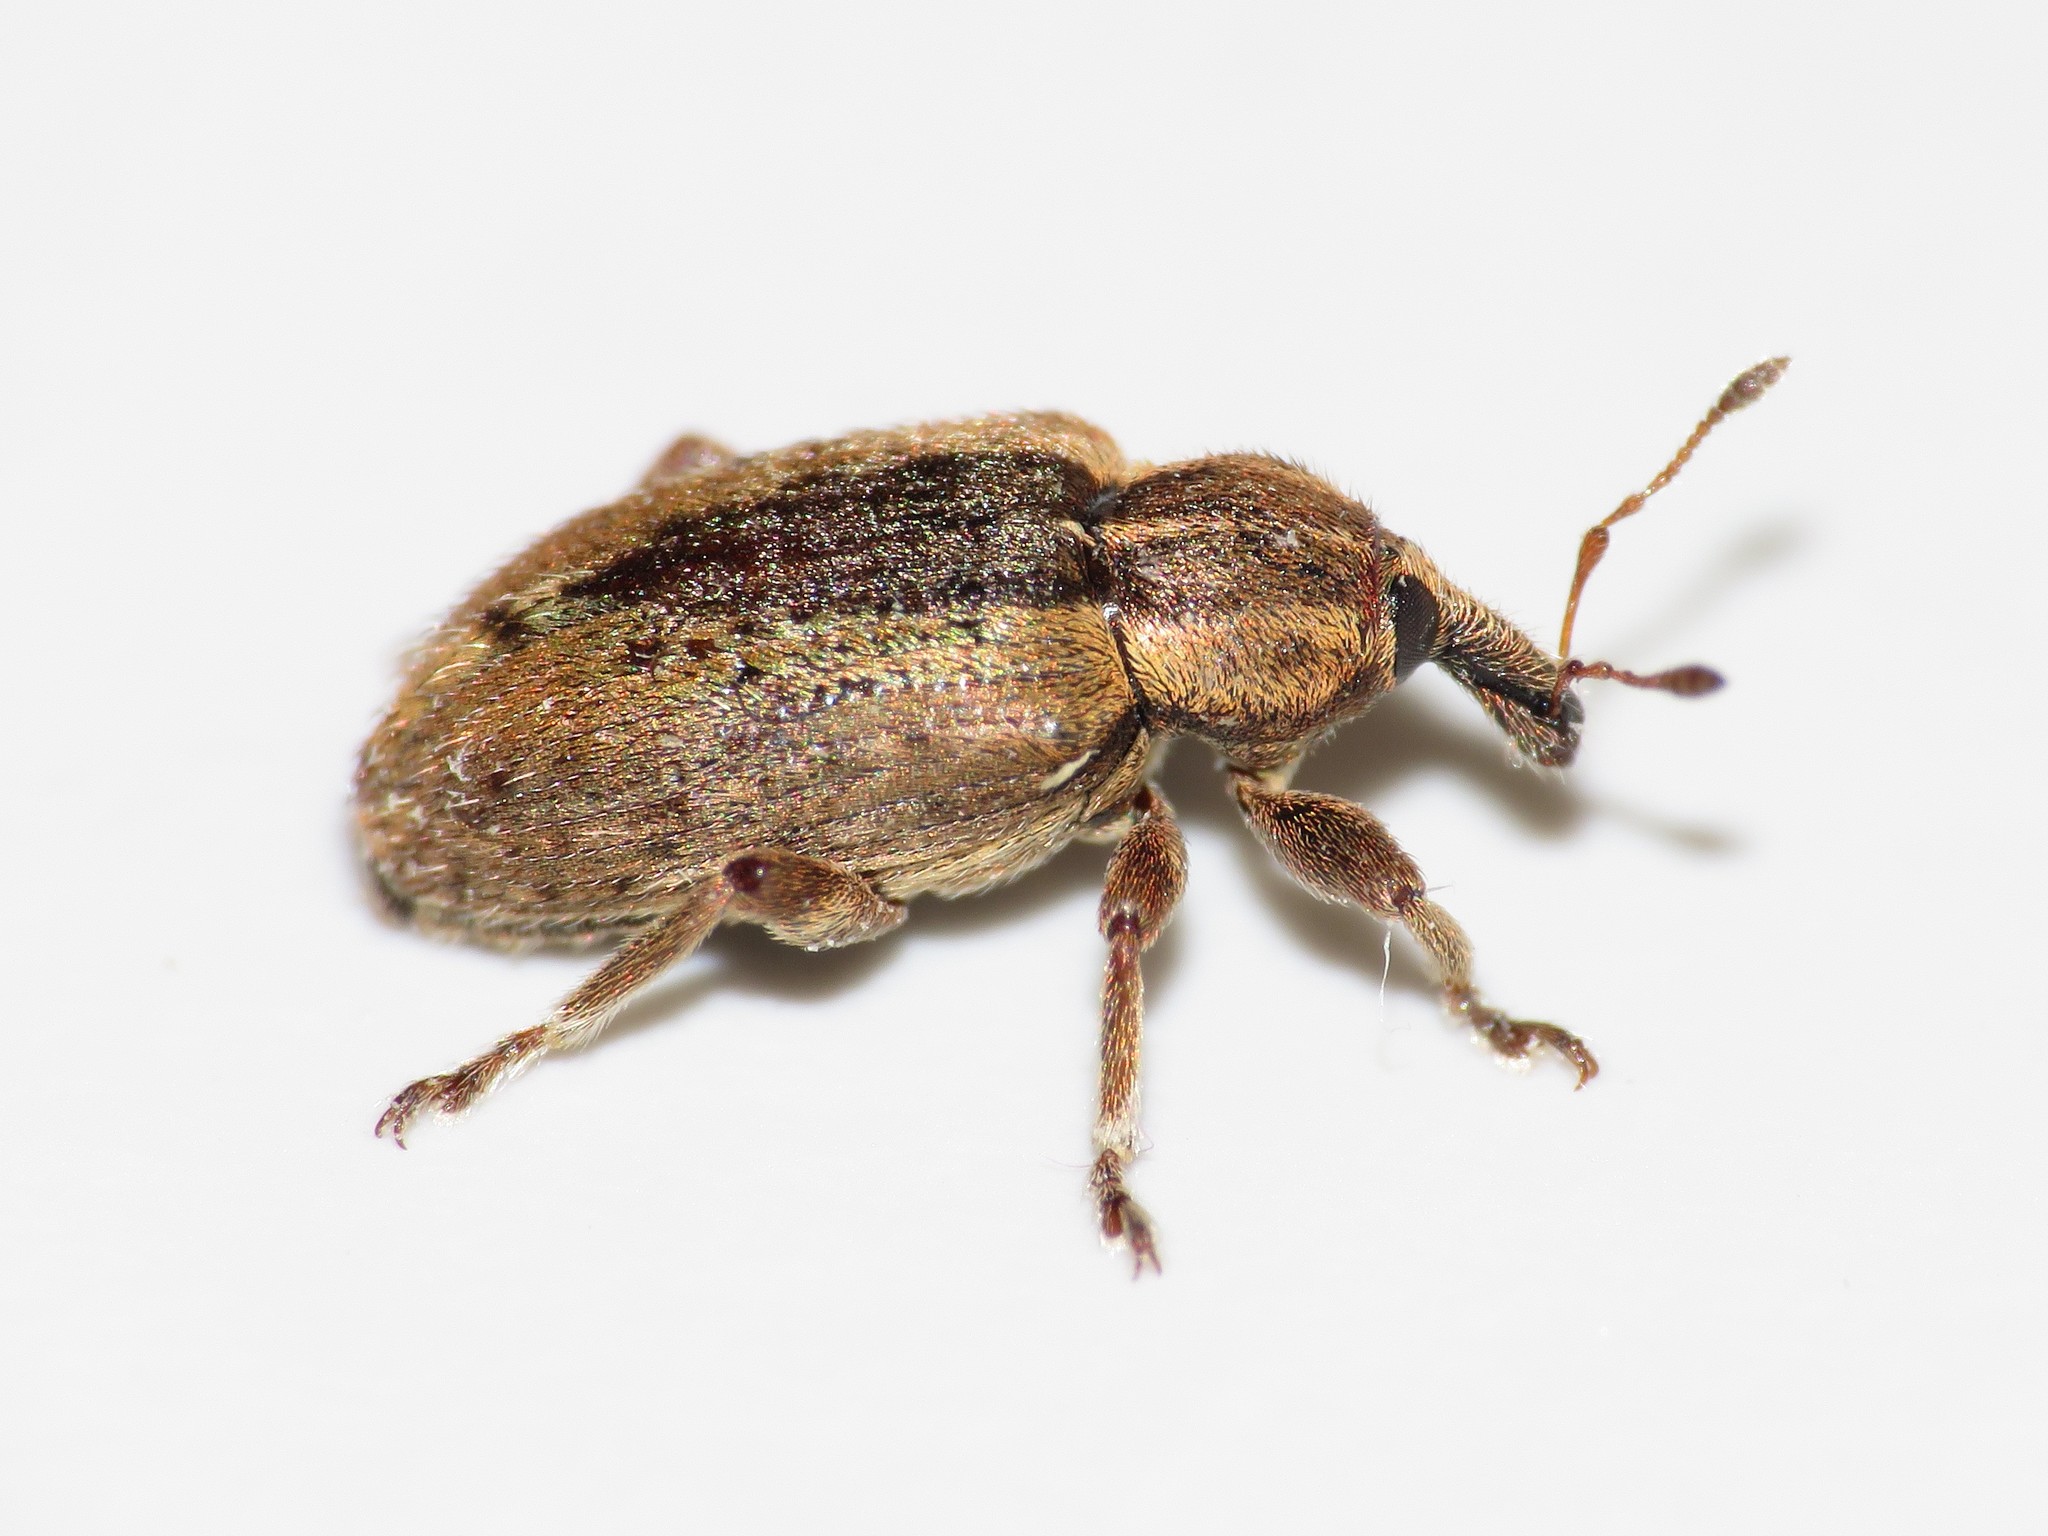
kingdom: Animalia
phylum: Arthropoda
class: Insecta
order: Coleoptera
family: Curculionidae
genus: Hypera
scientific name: Hypera postica
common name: Weevil
